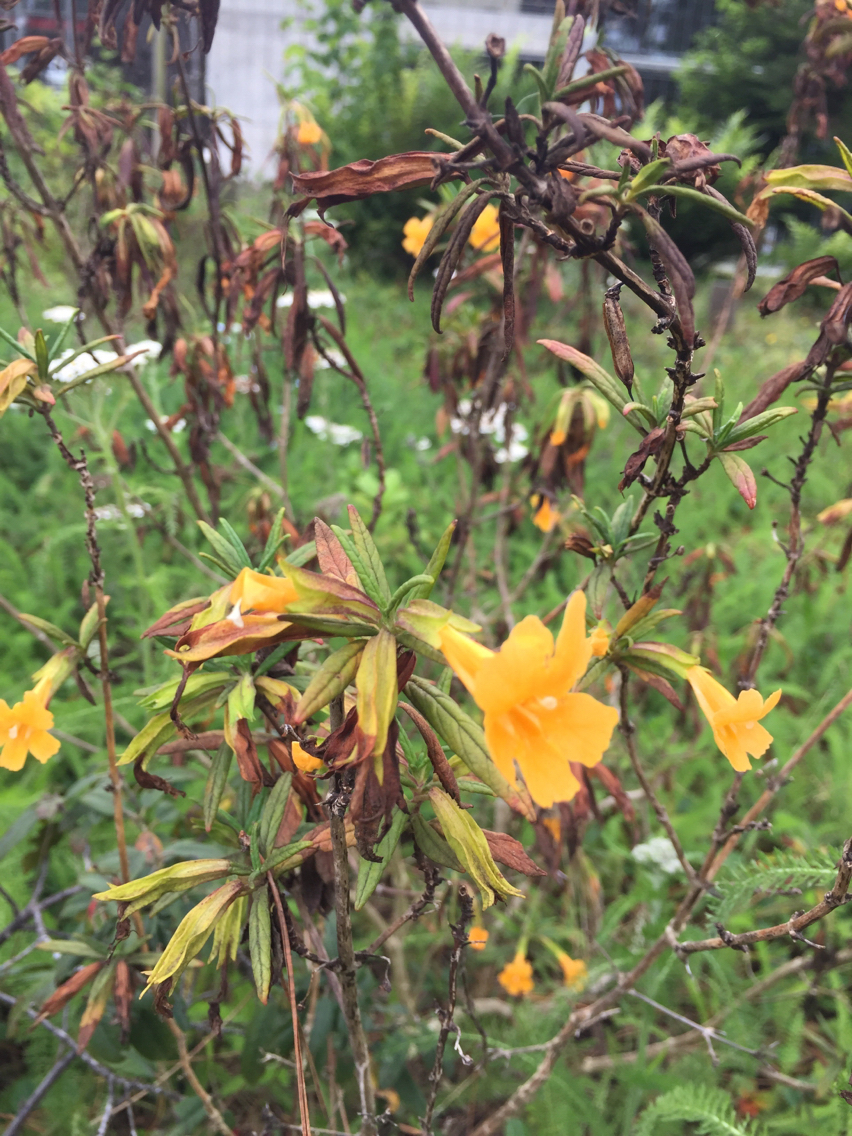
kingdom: Plantae
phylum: Tracheophyta
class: Magnoliopsida
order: Lamiales
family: Phrymaceae
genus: Diplacus
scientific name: Diplacus aurantiacus
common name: Bush monkey-flower
